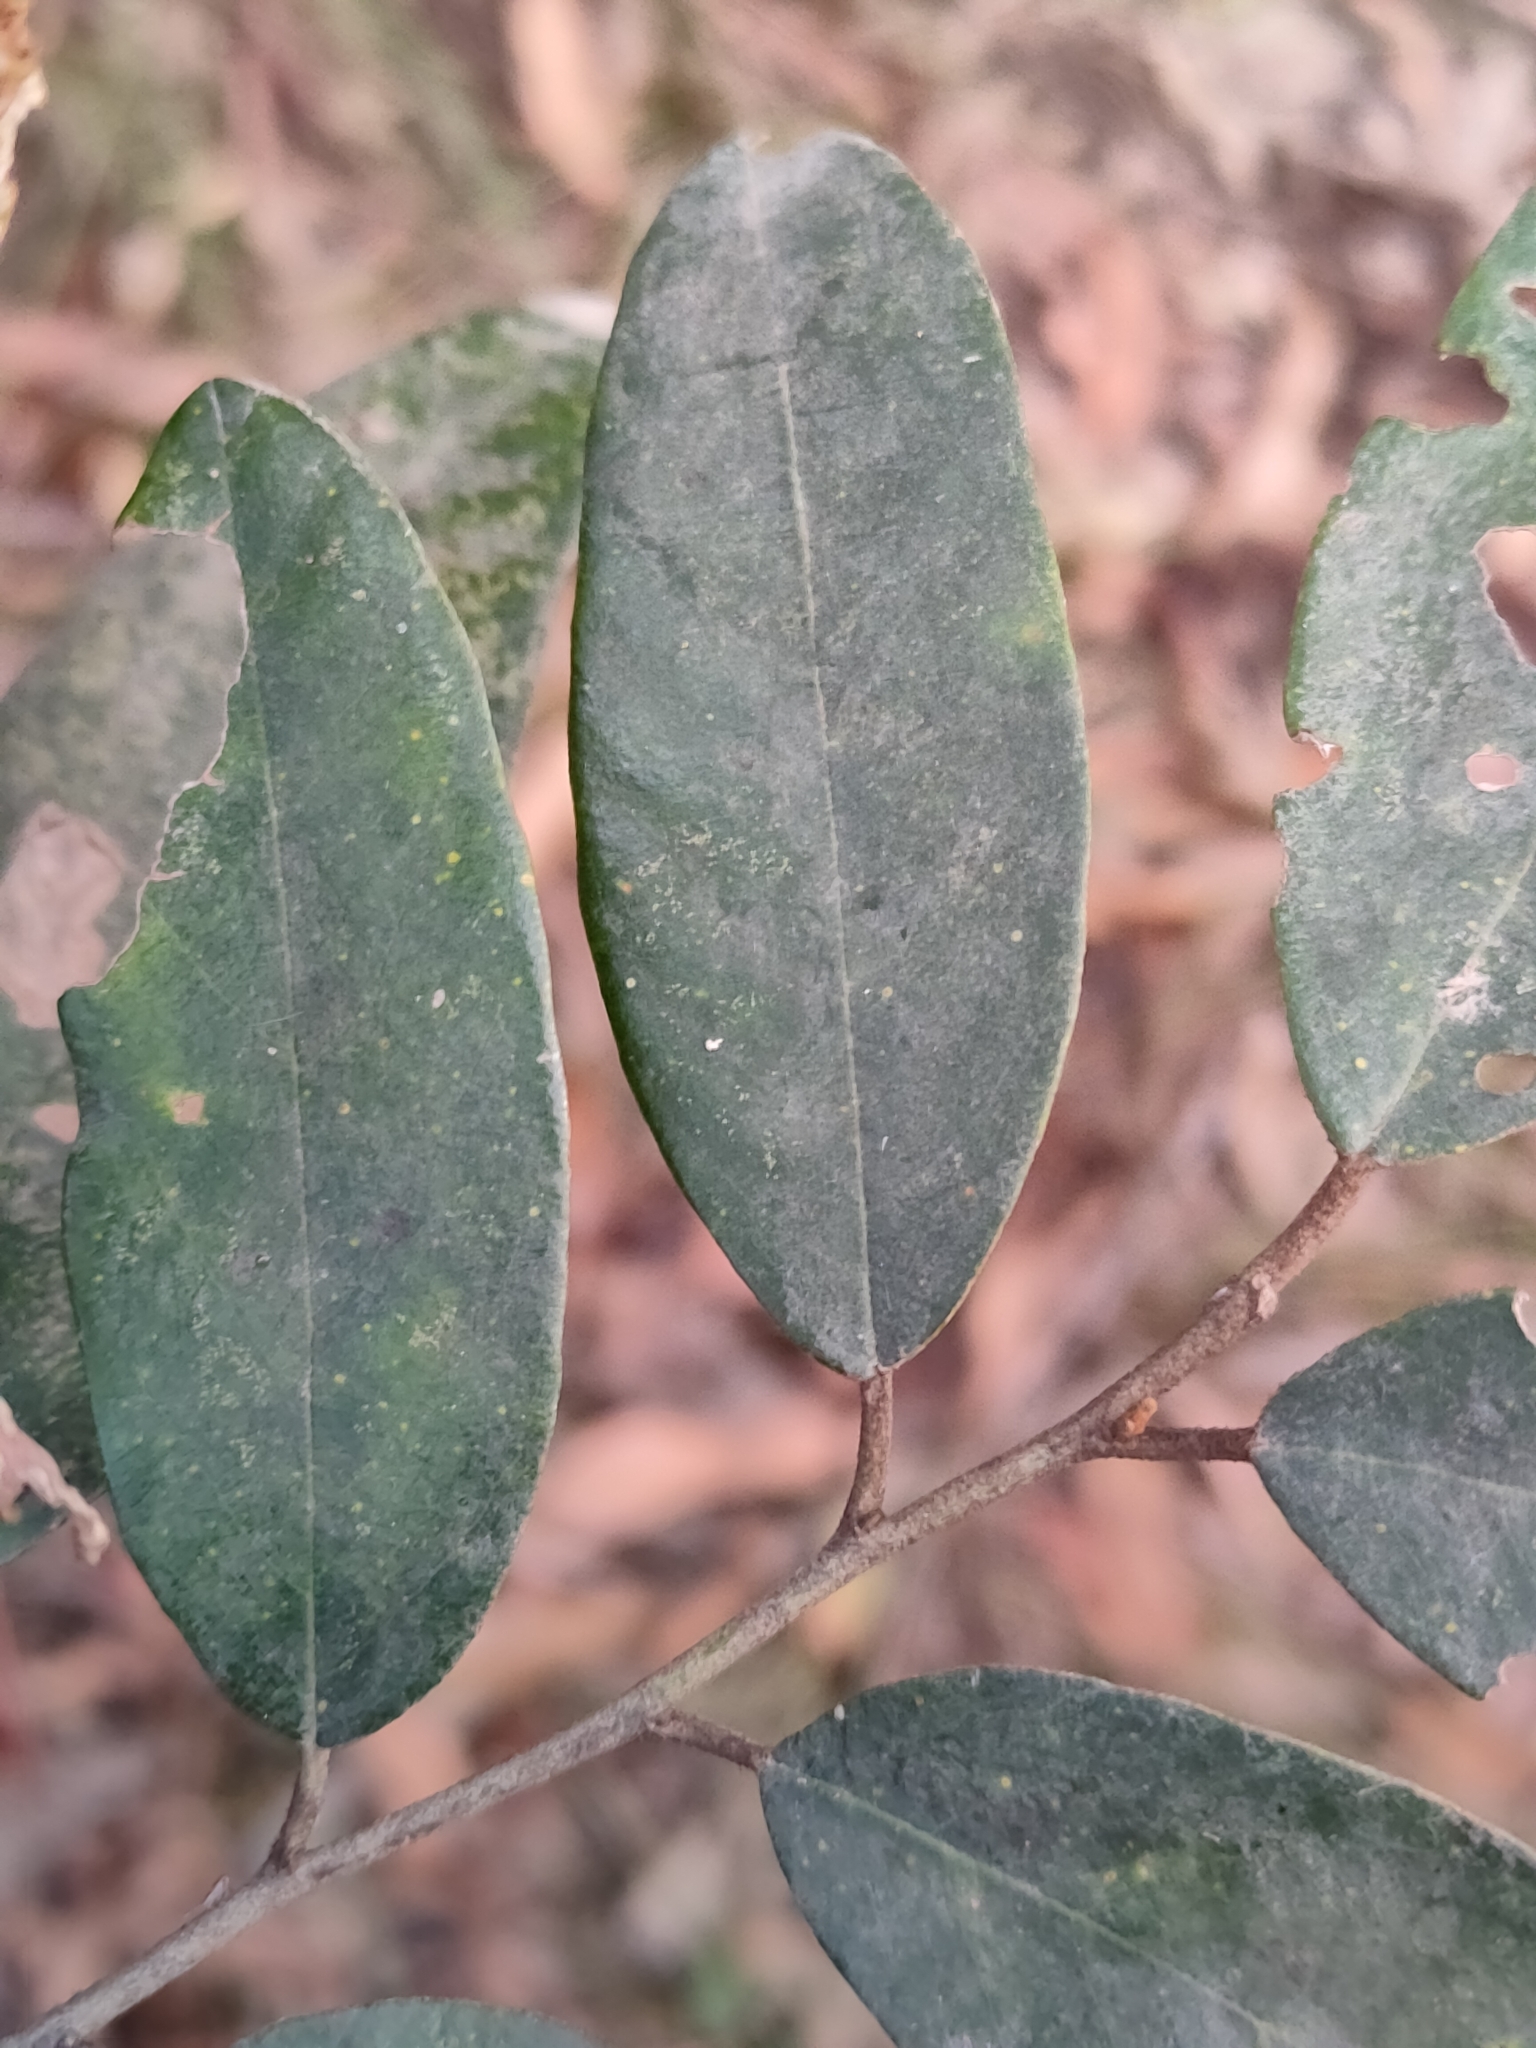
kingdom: Plantae
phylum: Tracheophyta
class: Magnoliopsida
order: Rosales
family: Rhamnaceae
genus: Alphitonia
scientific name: Alphitonia excelsa
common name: Red ash
